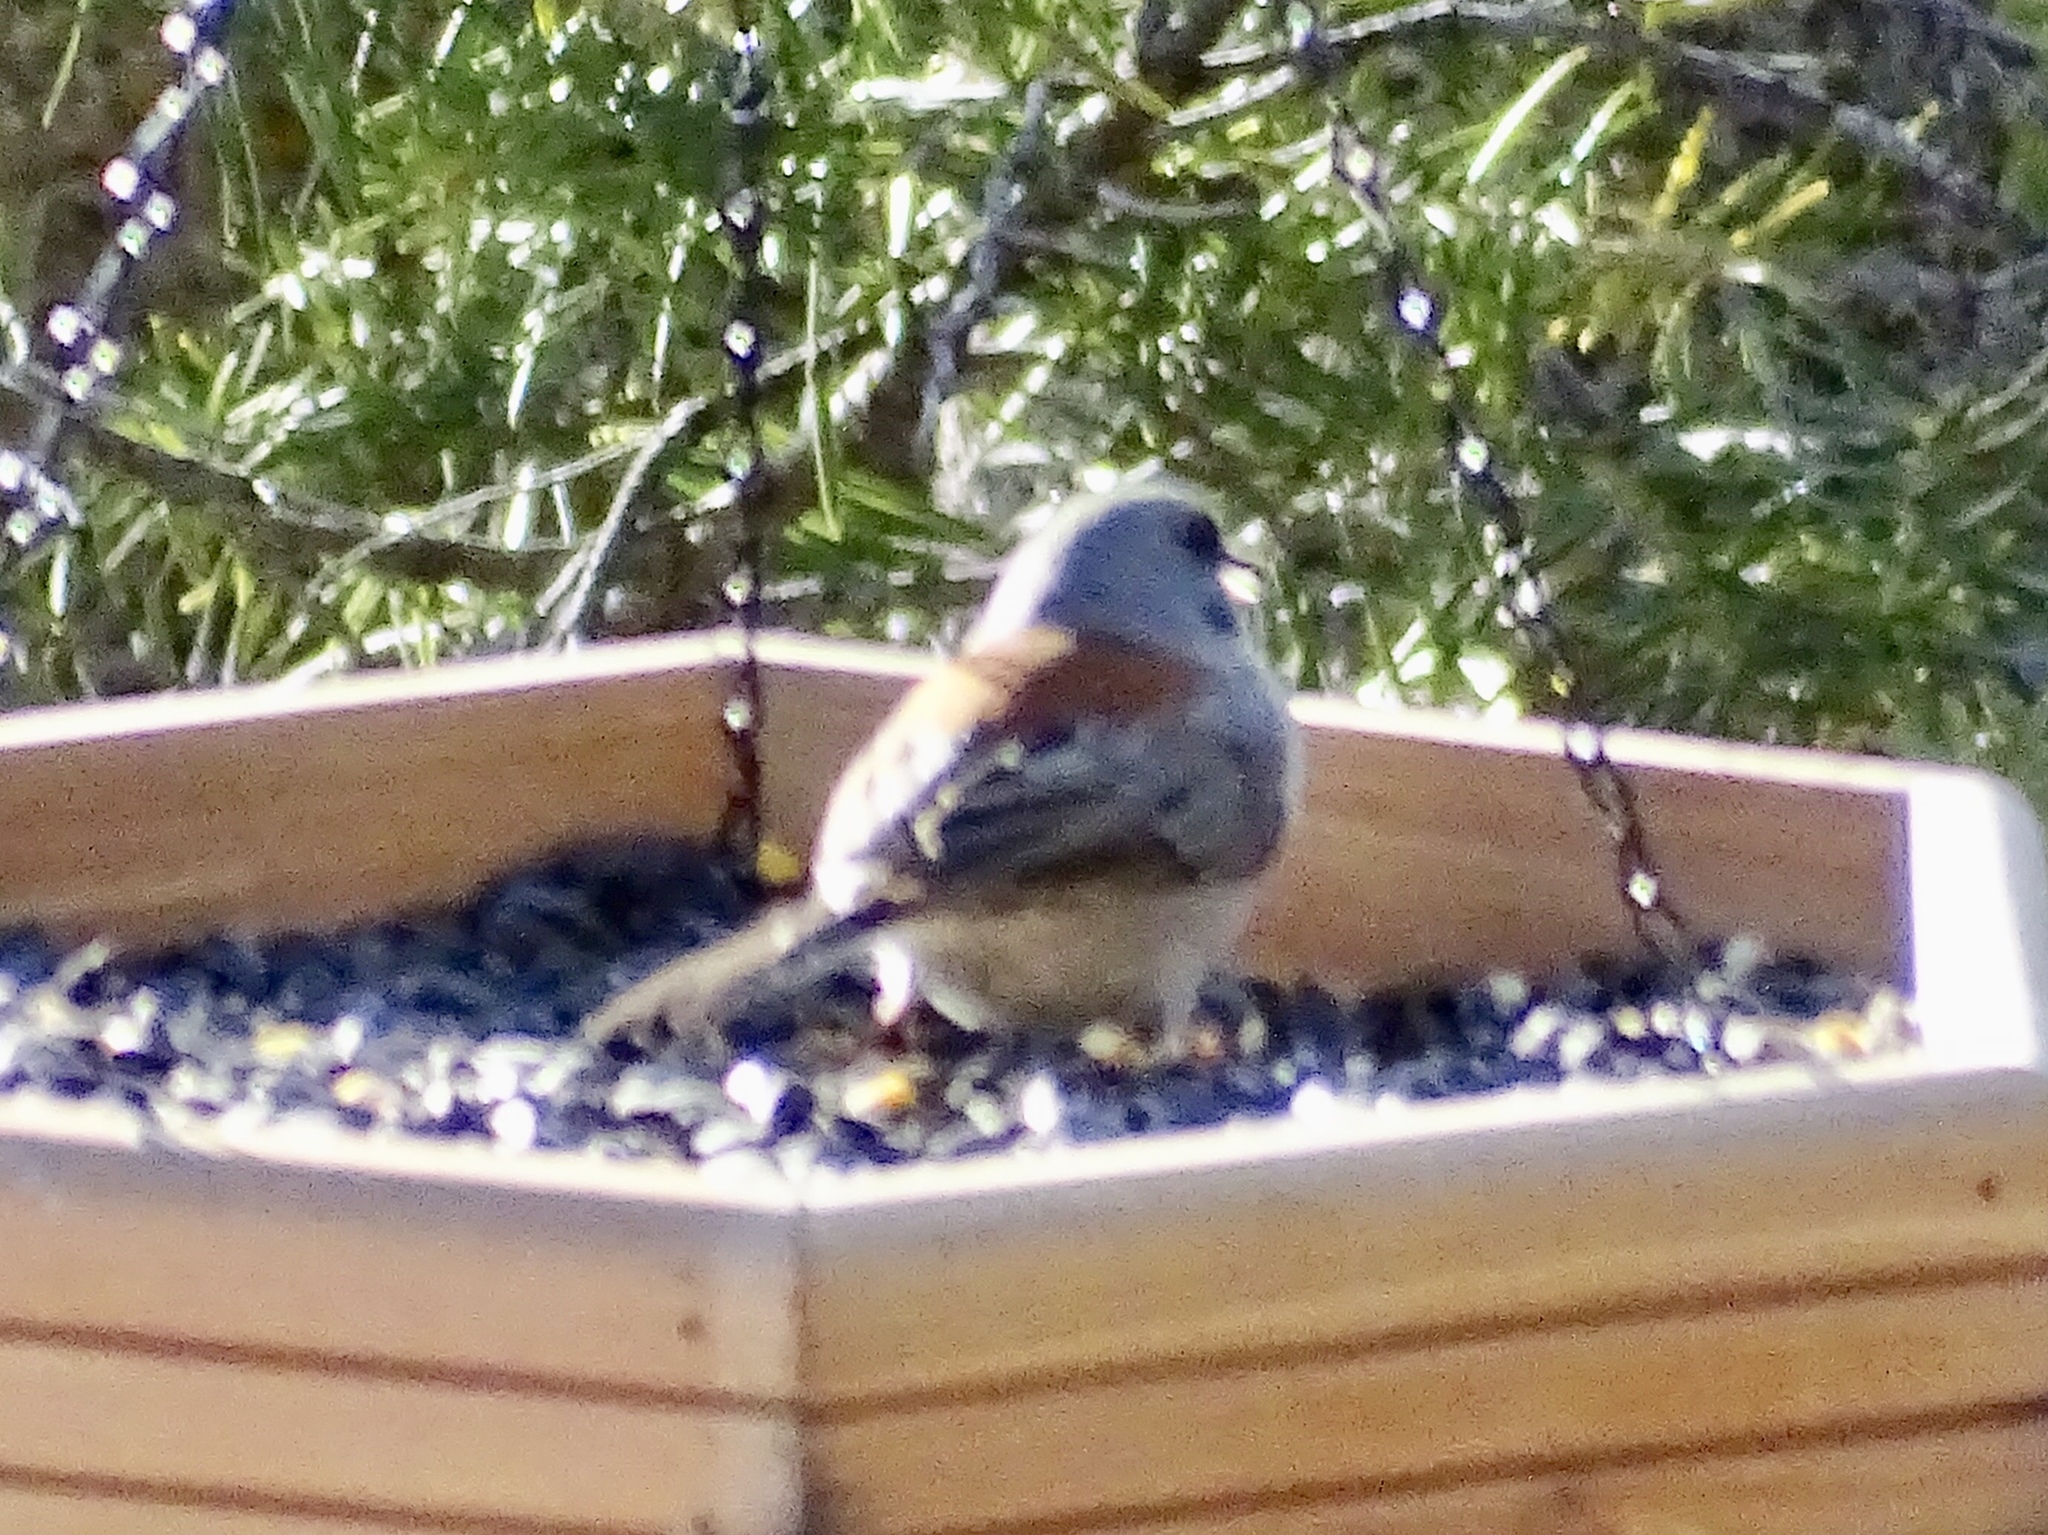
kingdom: Animalia
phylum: Chordata
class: Aves
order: Passeriformes
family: Passerellidae
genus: Junco
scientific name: Junco hyemalis
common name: Dark-eyed junco
